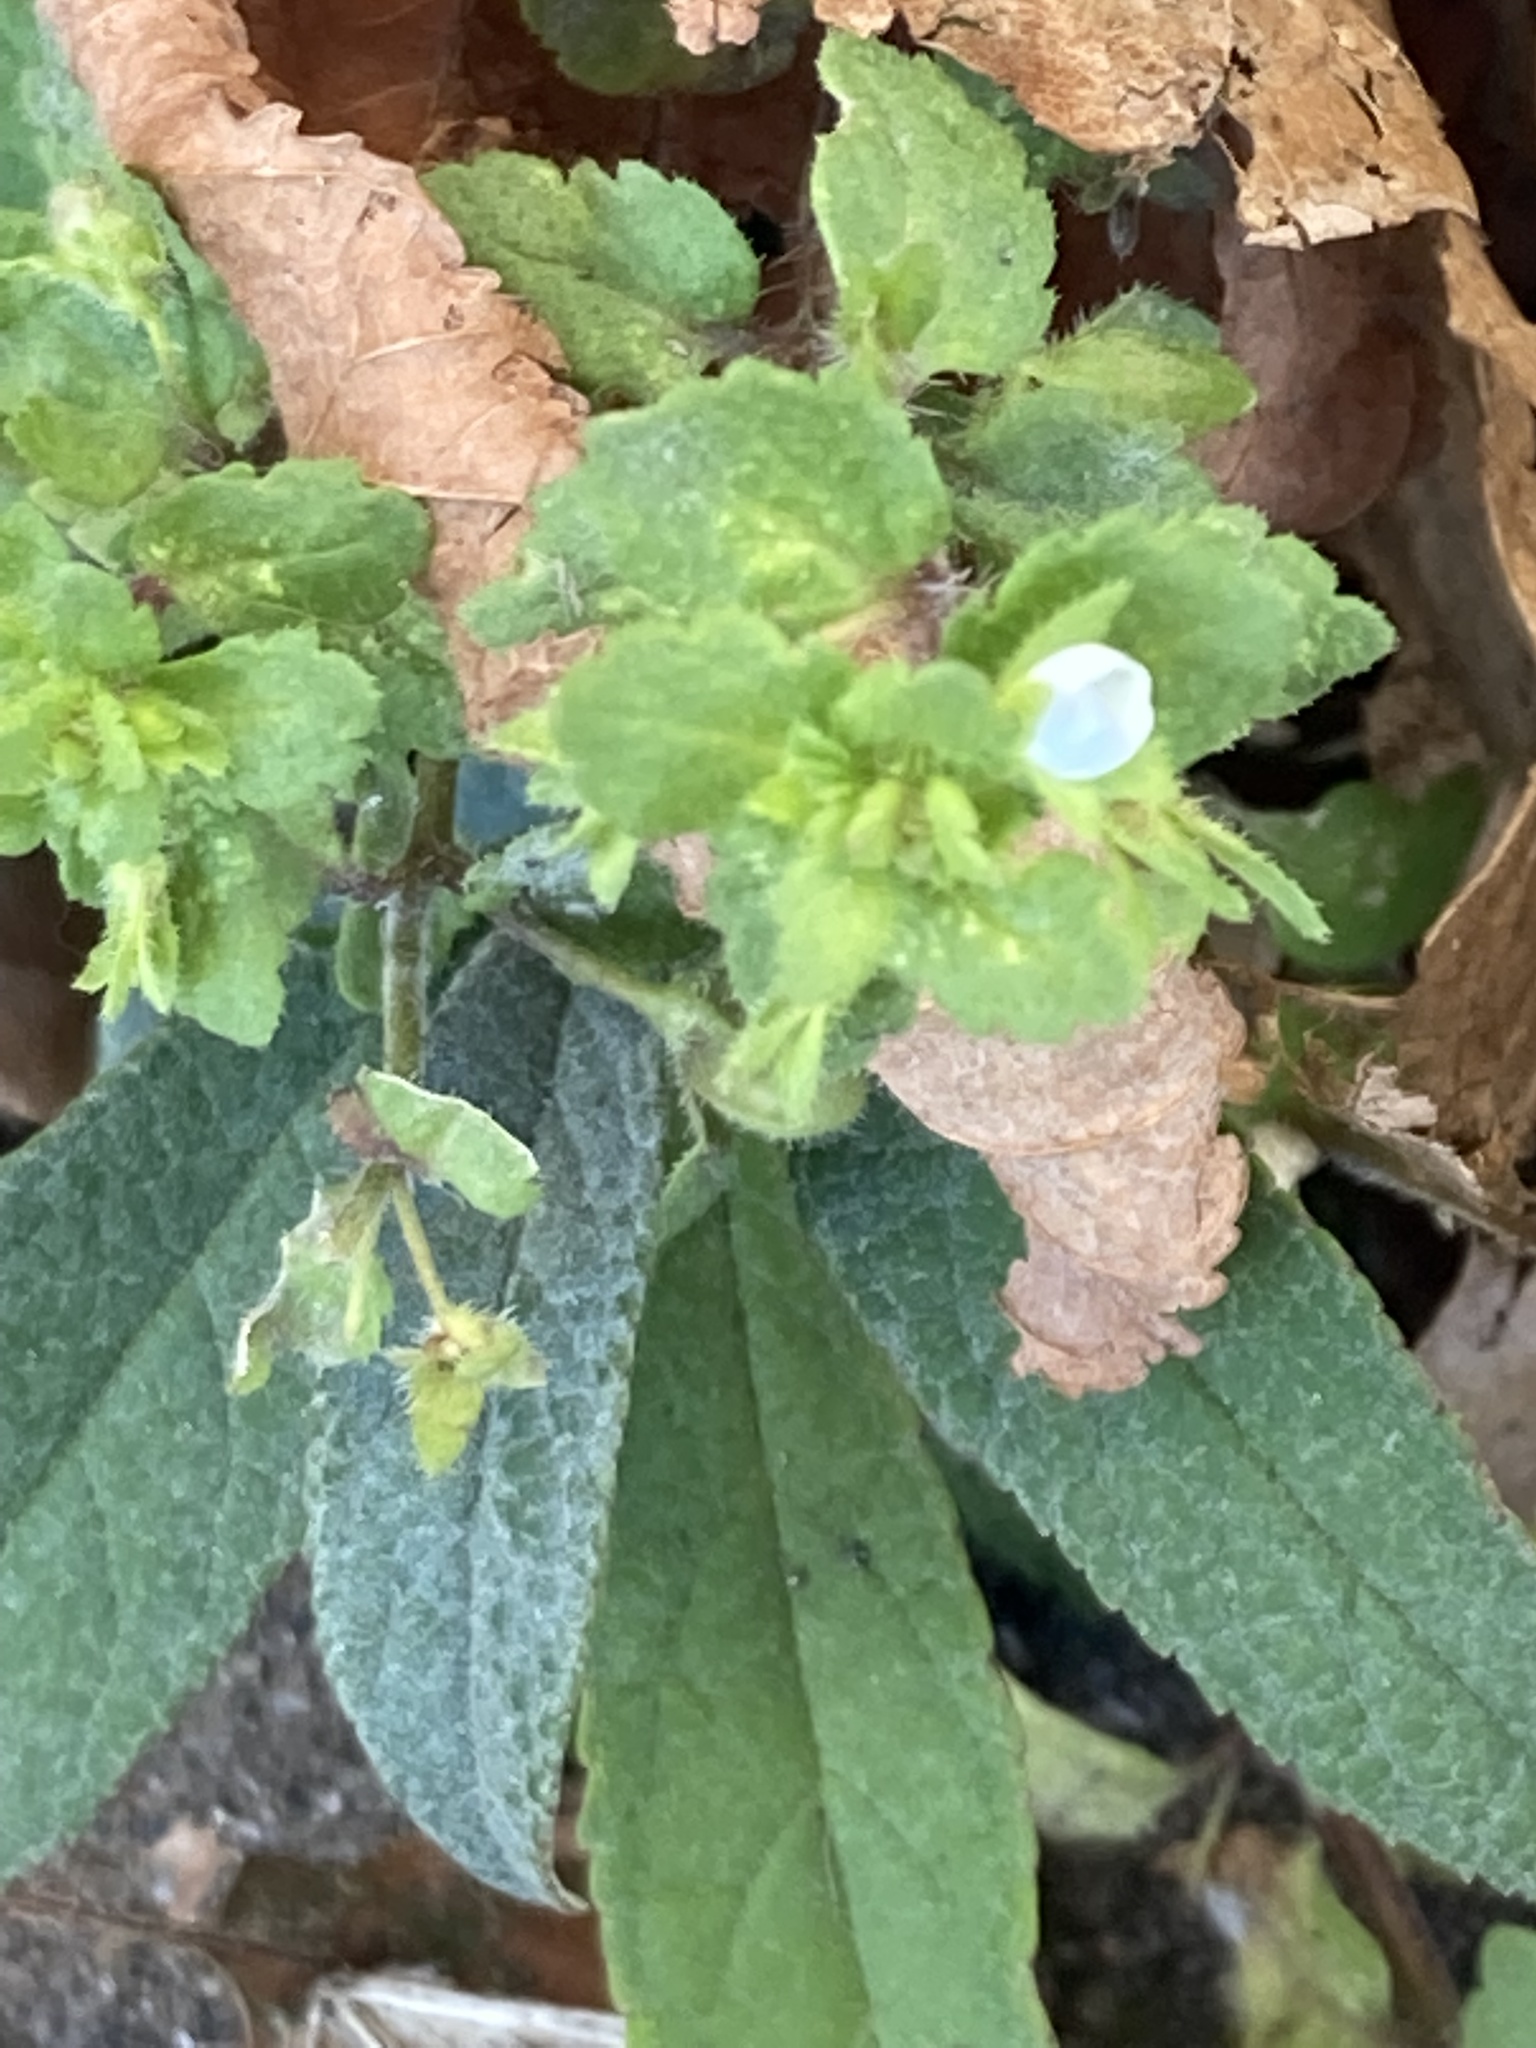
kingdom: Plantae
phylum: Tracheophyta
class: Magnoliopsida
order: Lamiales
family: Plantaginaceae
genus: Veronica
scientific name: Veronica agrestis
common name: Green field-speedwell
